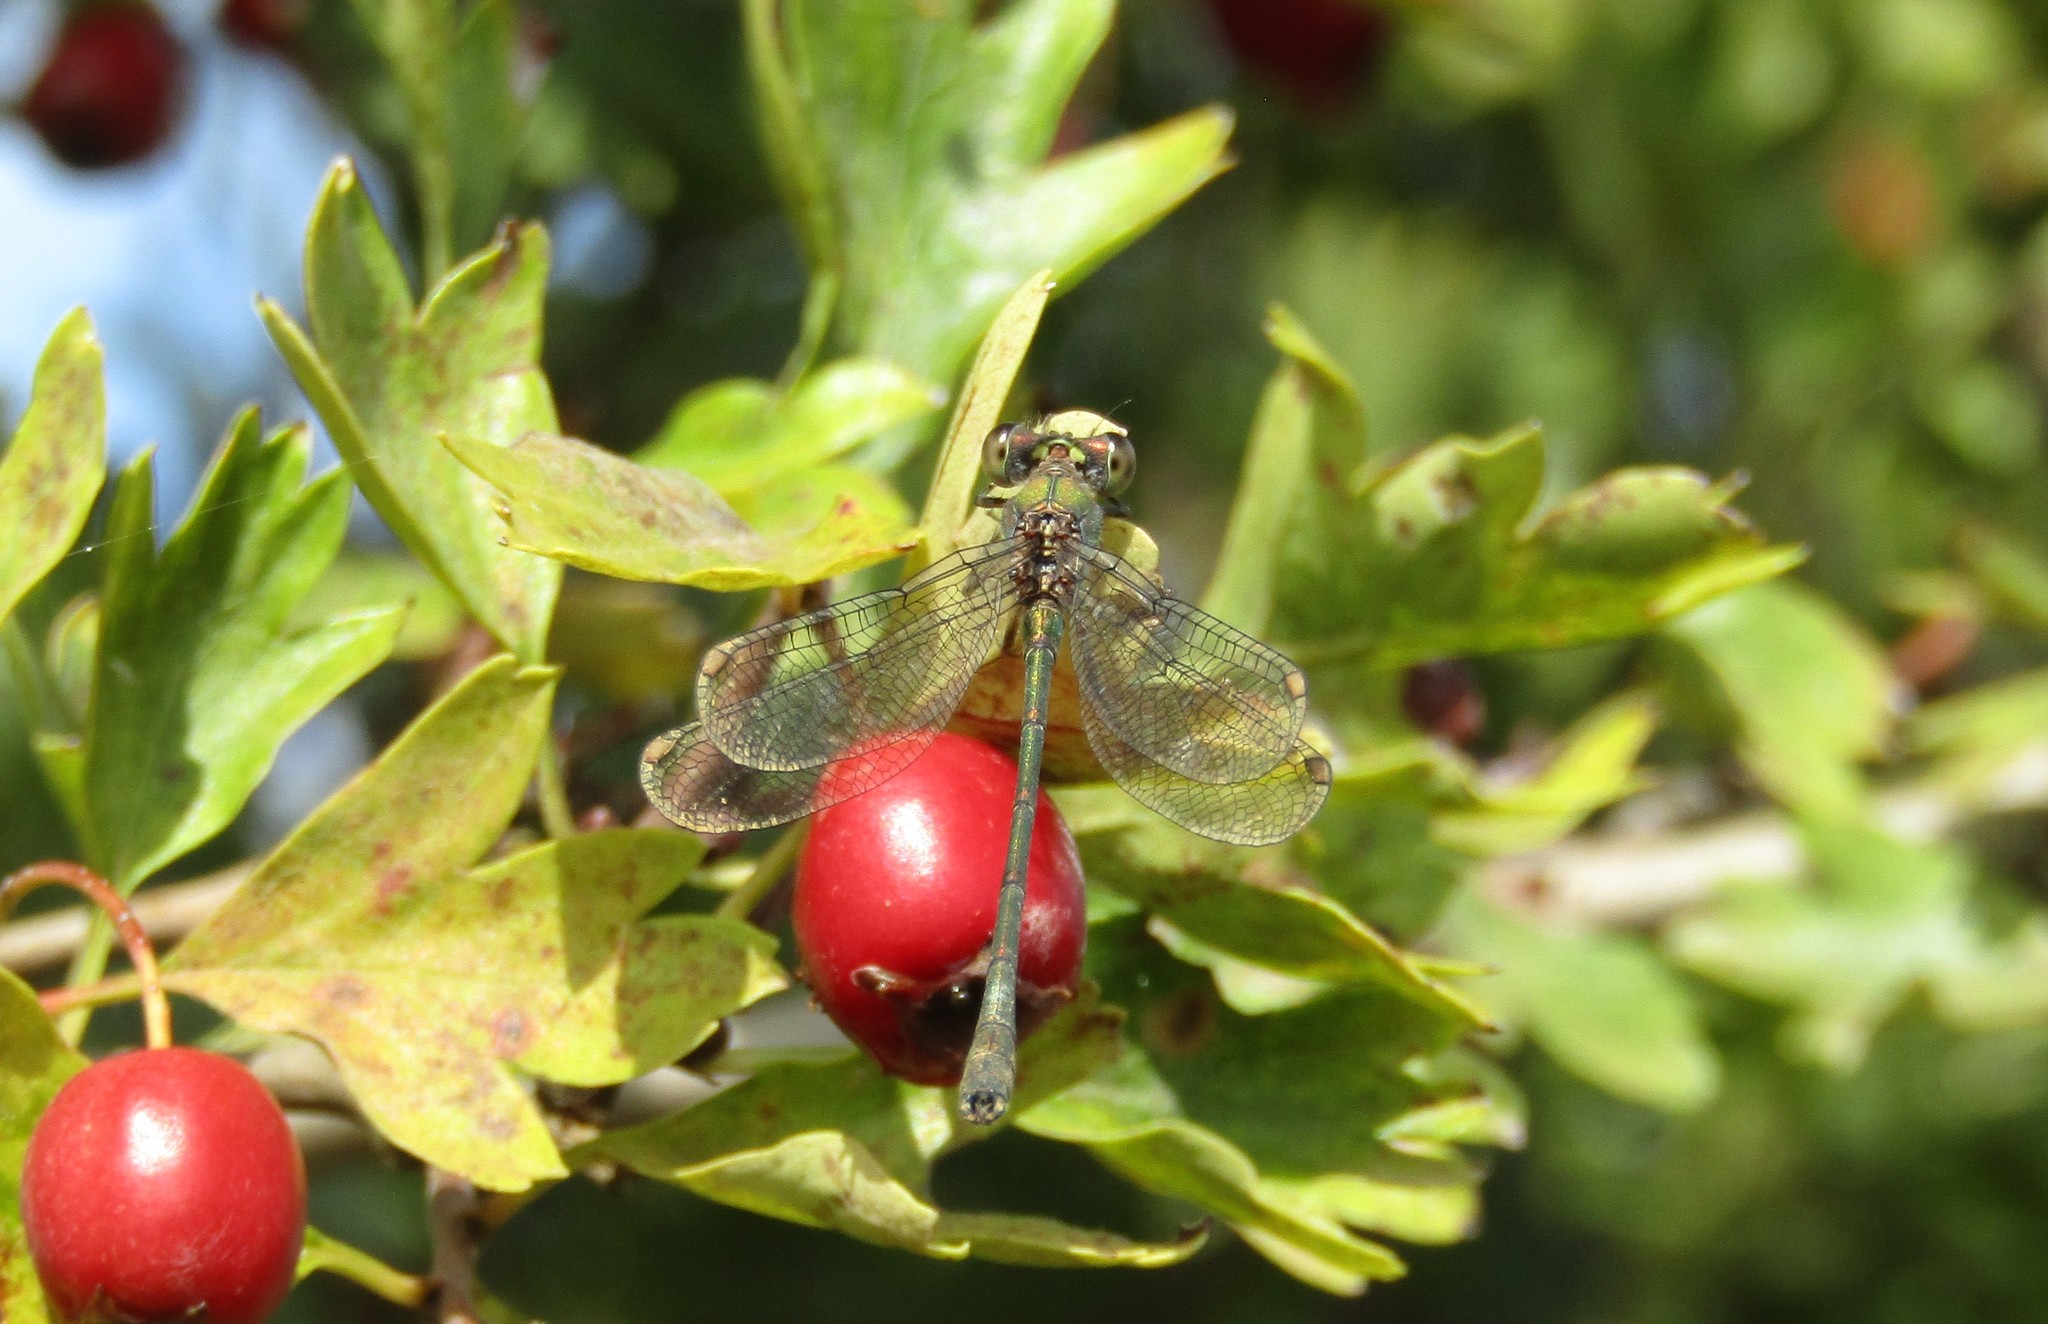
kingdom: Animalia
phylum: Arthropoda
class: Insecta
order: Odonata
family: Lestidae
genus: Chalcolestes
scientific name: Chalcolestes viridis
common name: Green emerald damselfly
